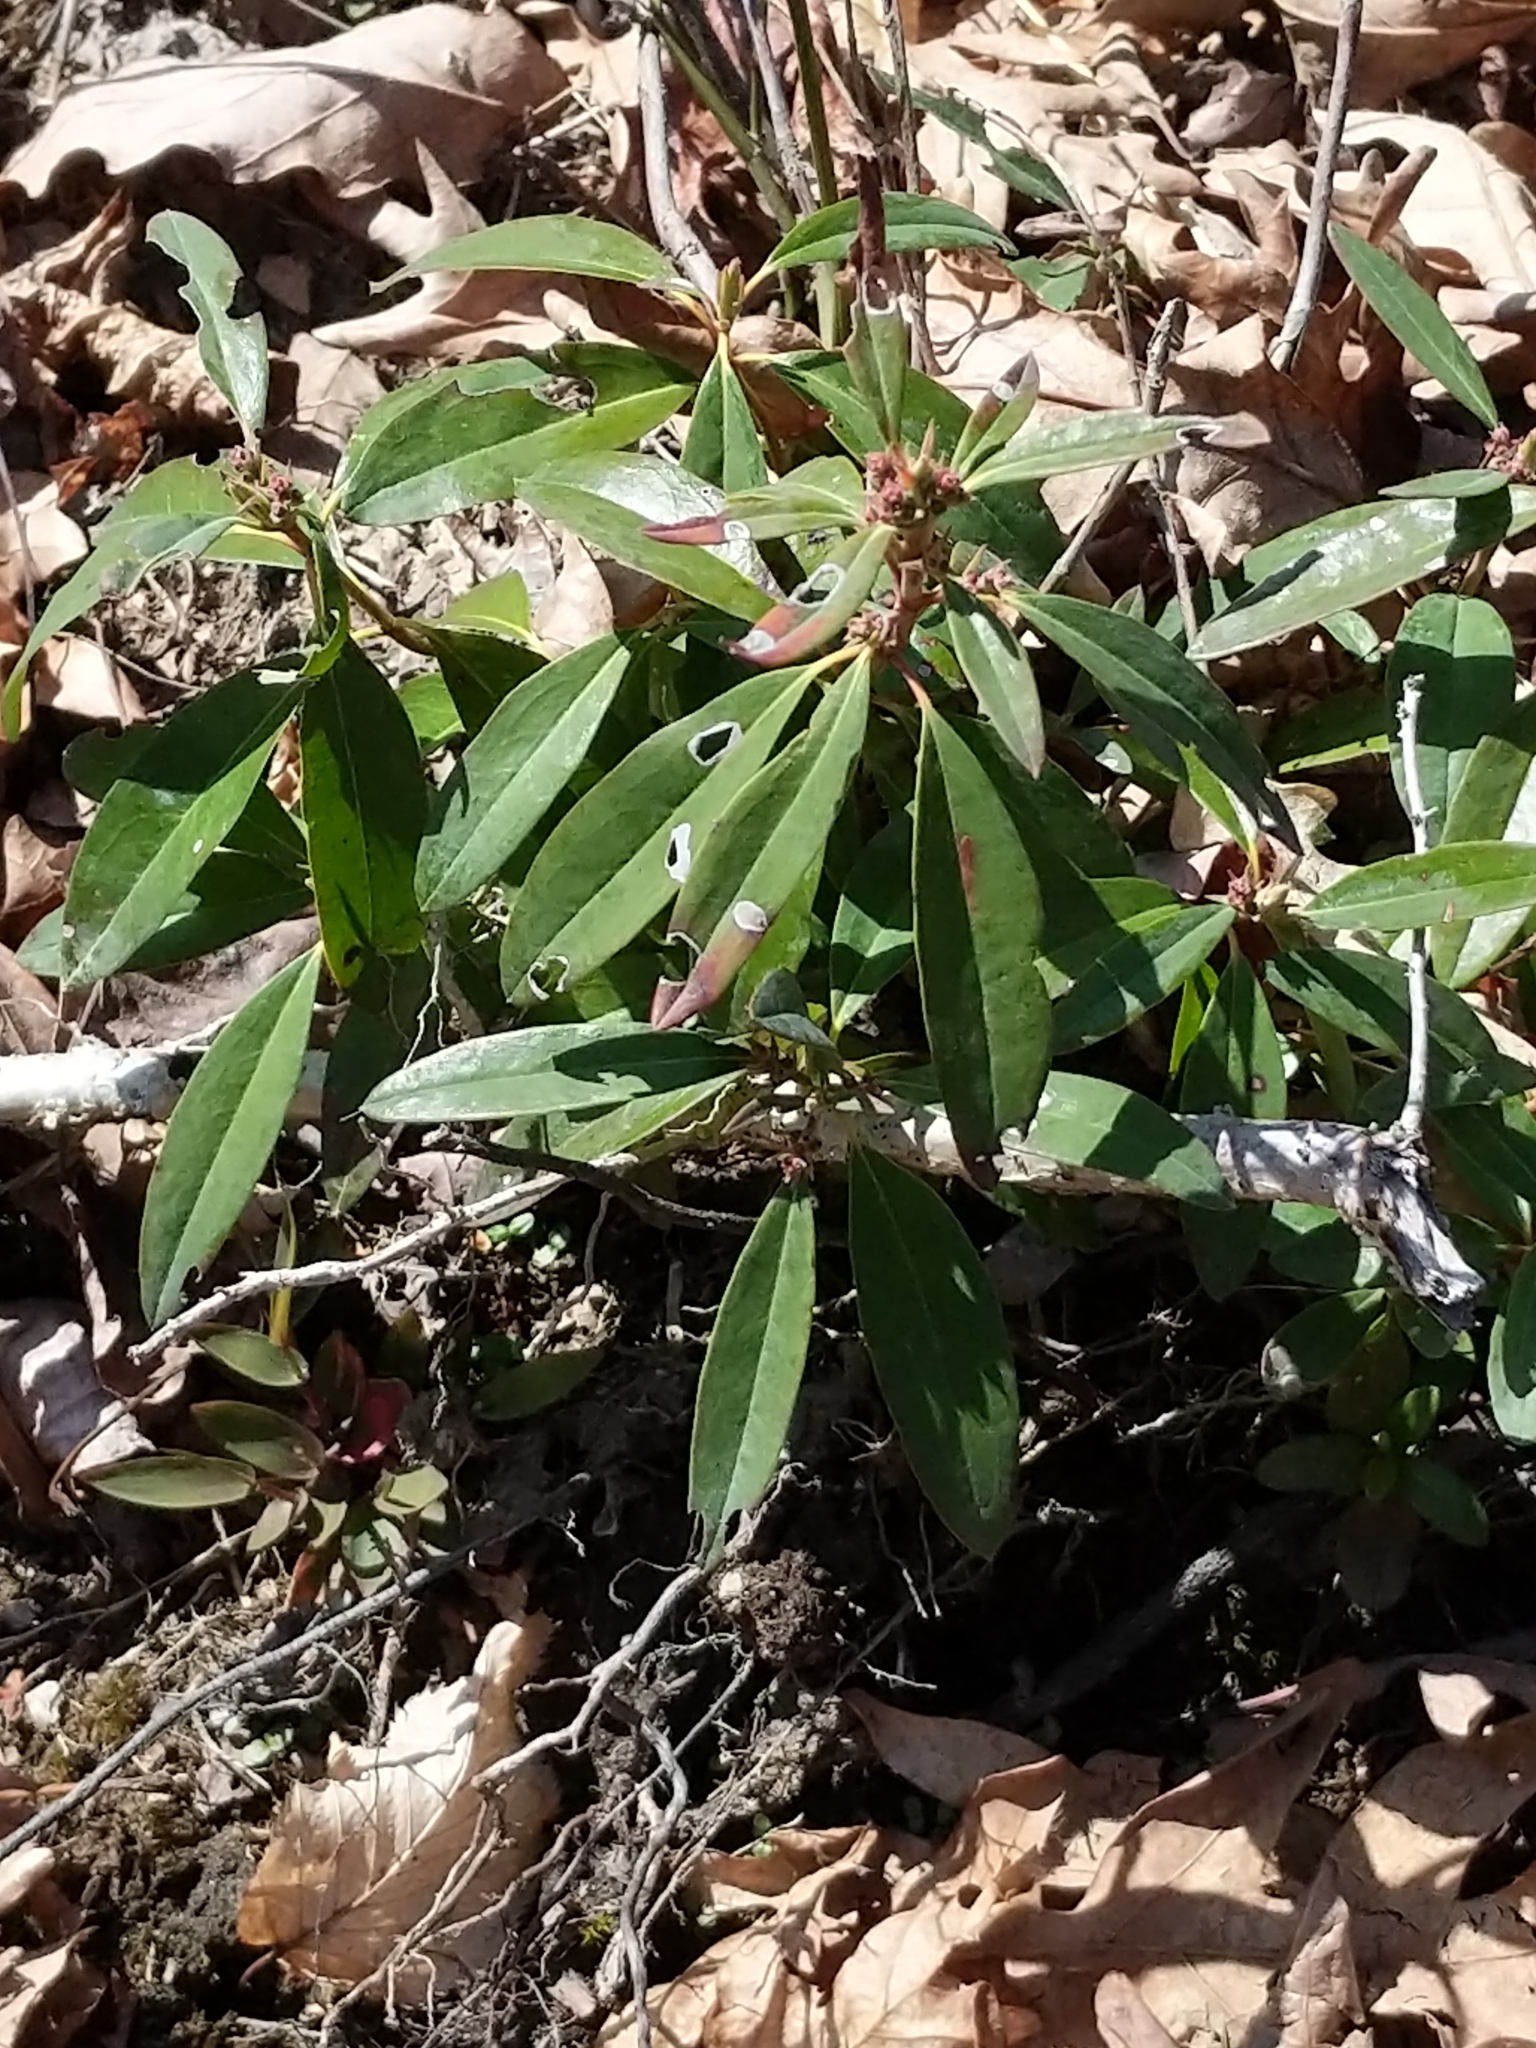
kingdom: Plantae
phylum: Tracheophyta
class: Magnoliopsida
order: Ericales
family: Ericaceae
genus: Kalmia
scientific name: Kalmia angustifolia
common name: Sheep-laurel
